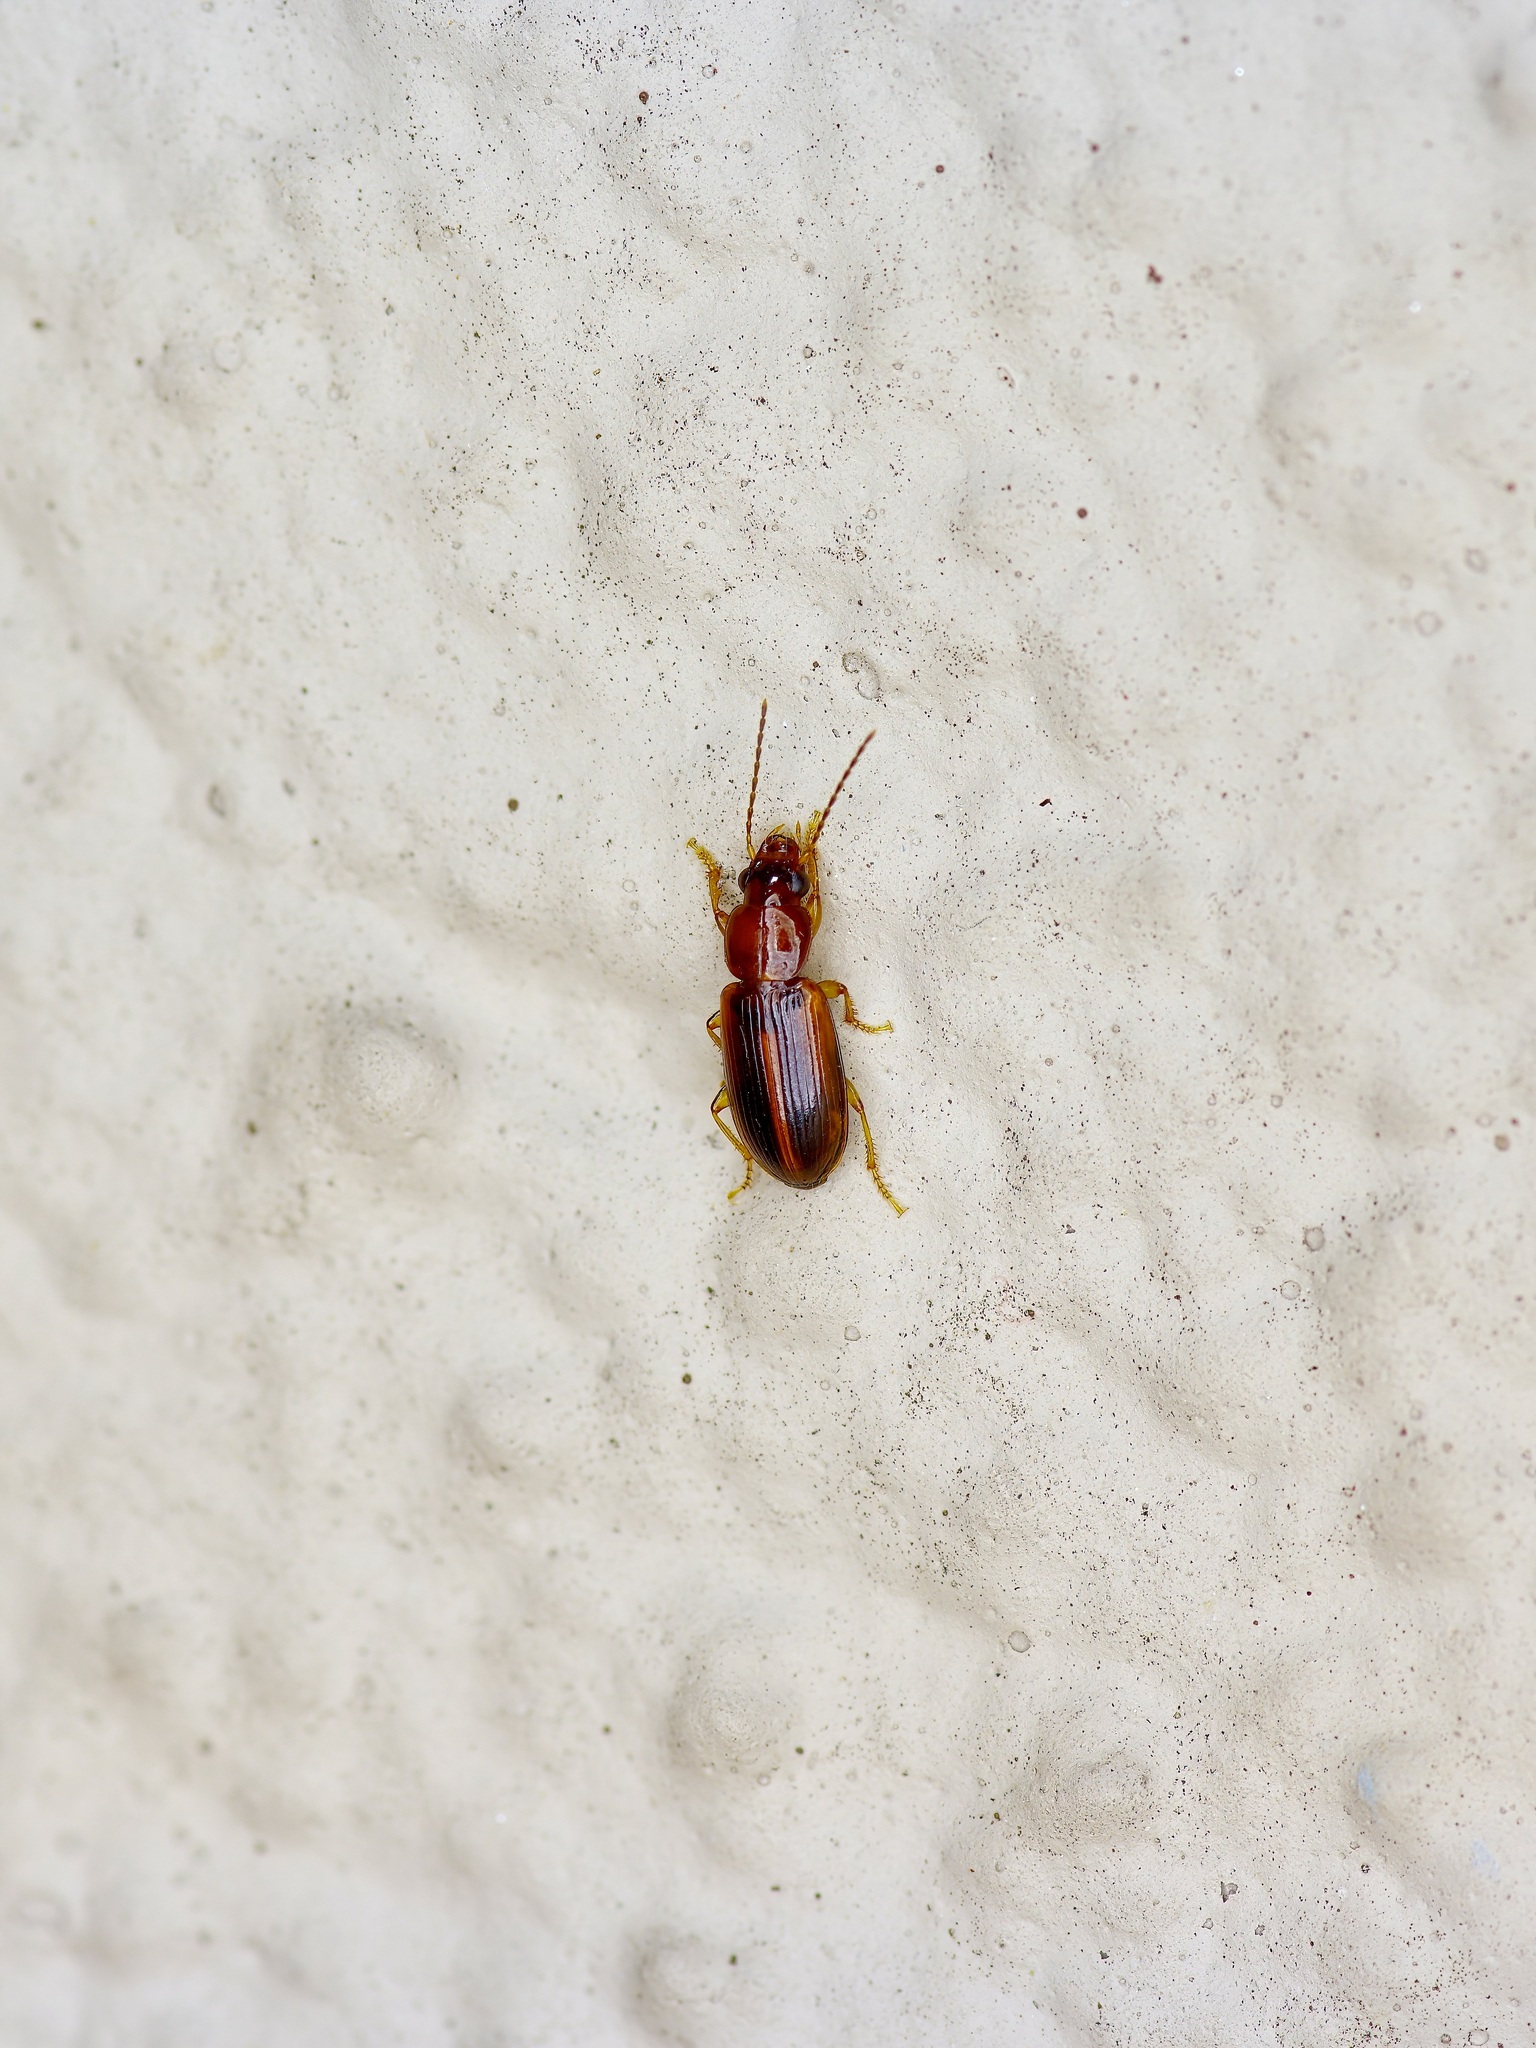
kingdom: Animalia
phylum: Arthropoda
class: Insecta
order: Coleoptera
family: Carabidae
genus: Bradycellus
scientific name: Bradycellus rupestris
